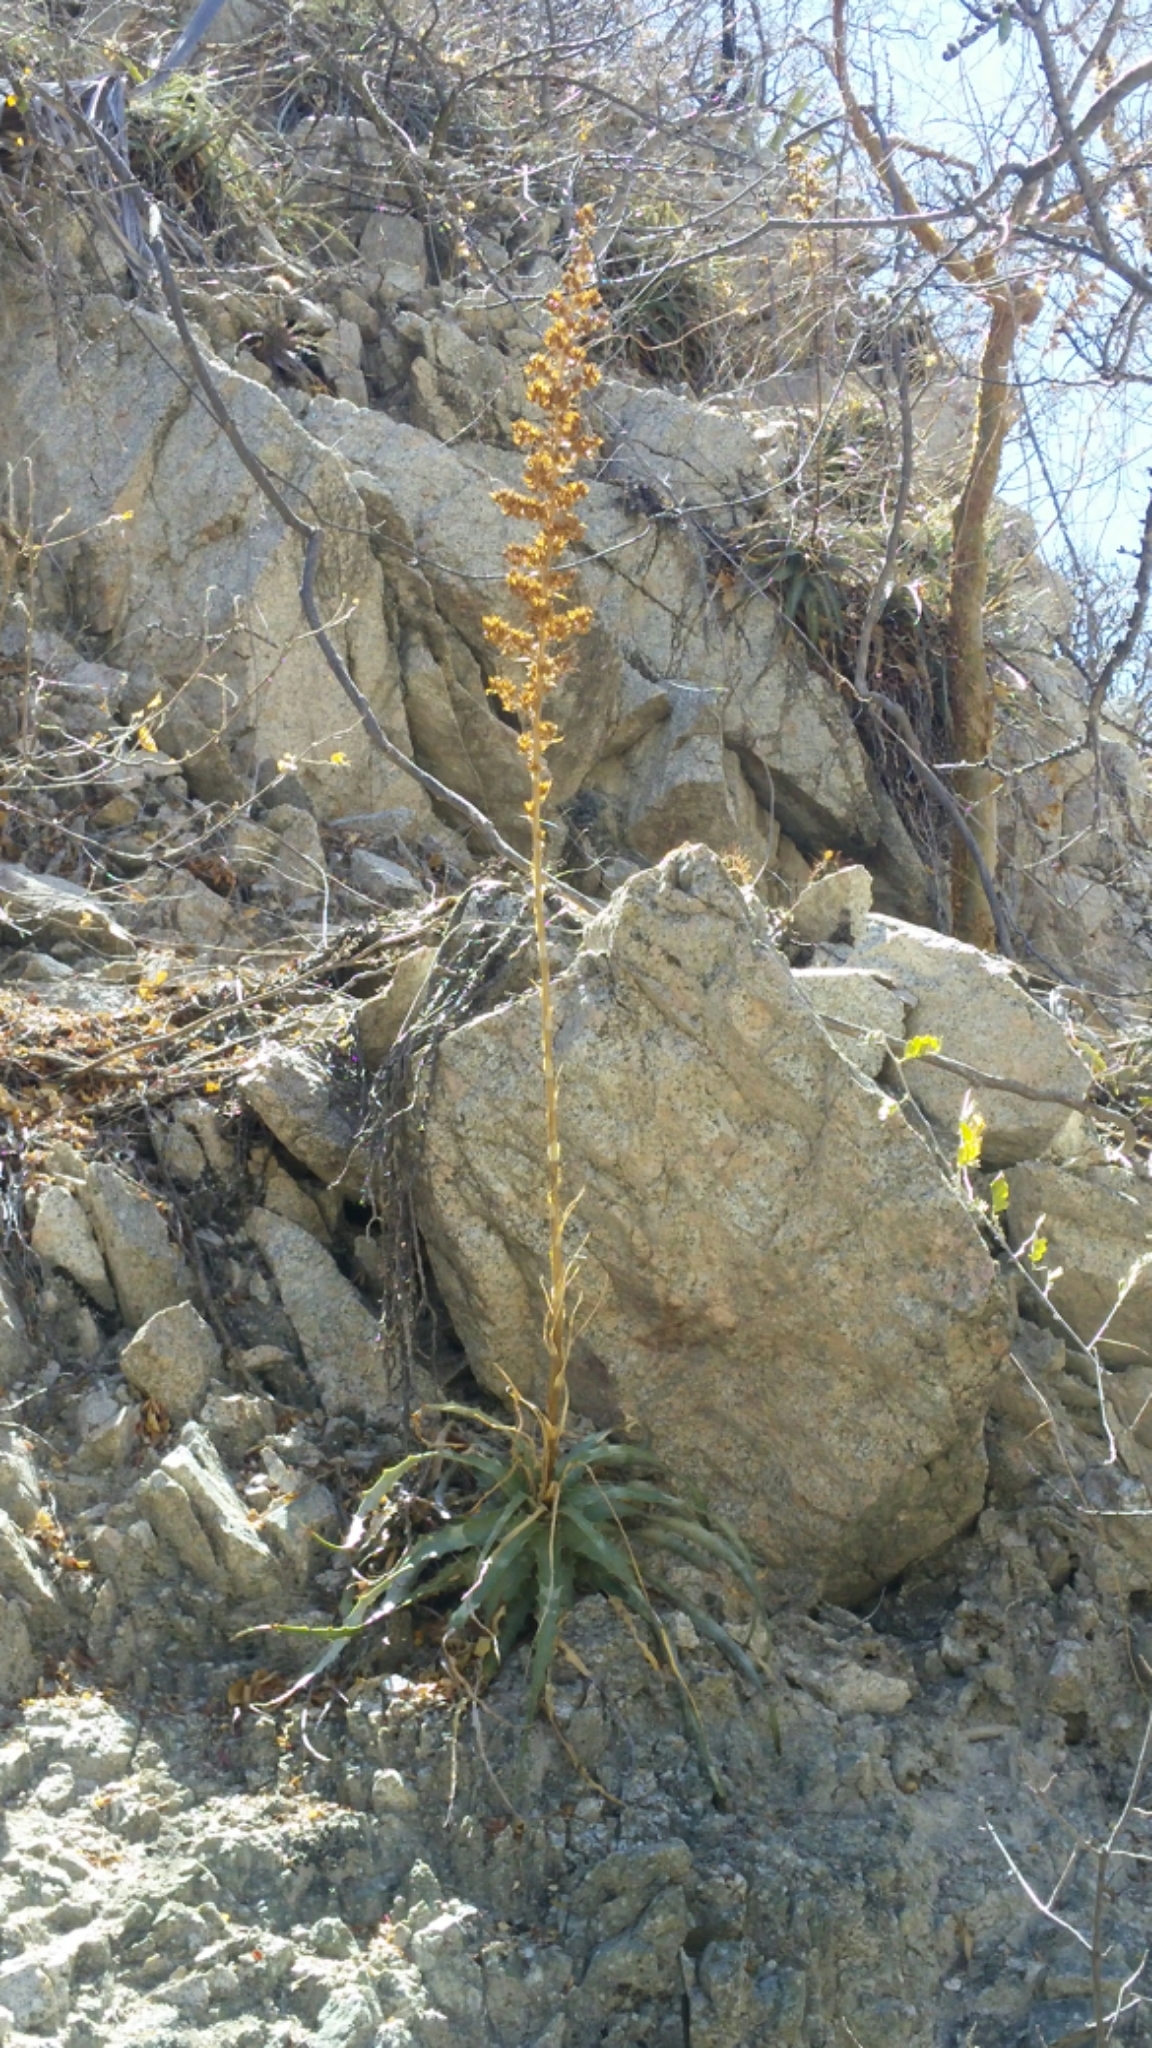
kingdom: Plantae
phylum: Tracheophyta
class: Liliopsida
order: Poales
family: Bromeliaceae
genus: Hechtia
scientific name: Hechtia montana
